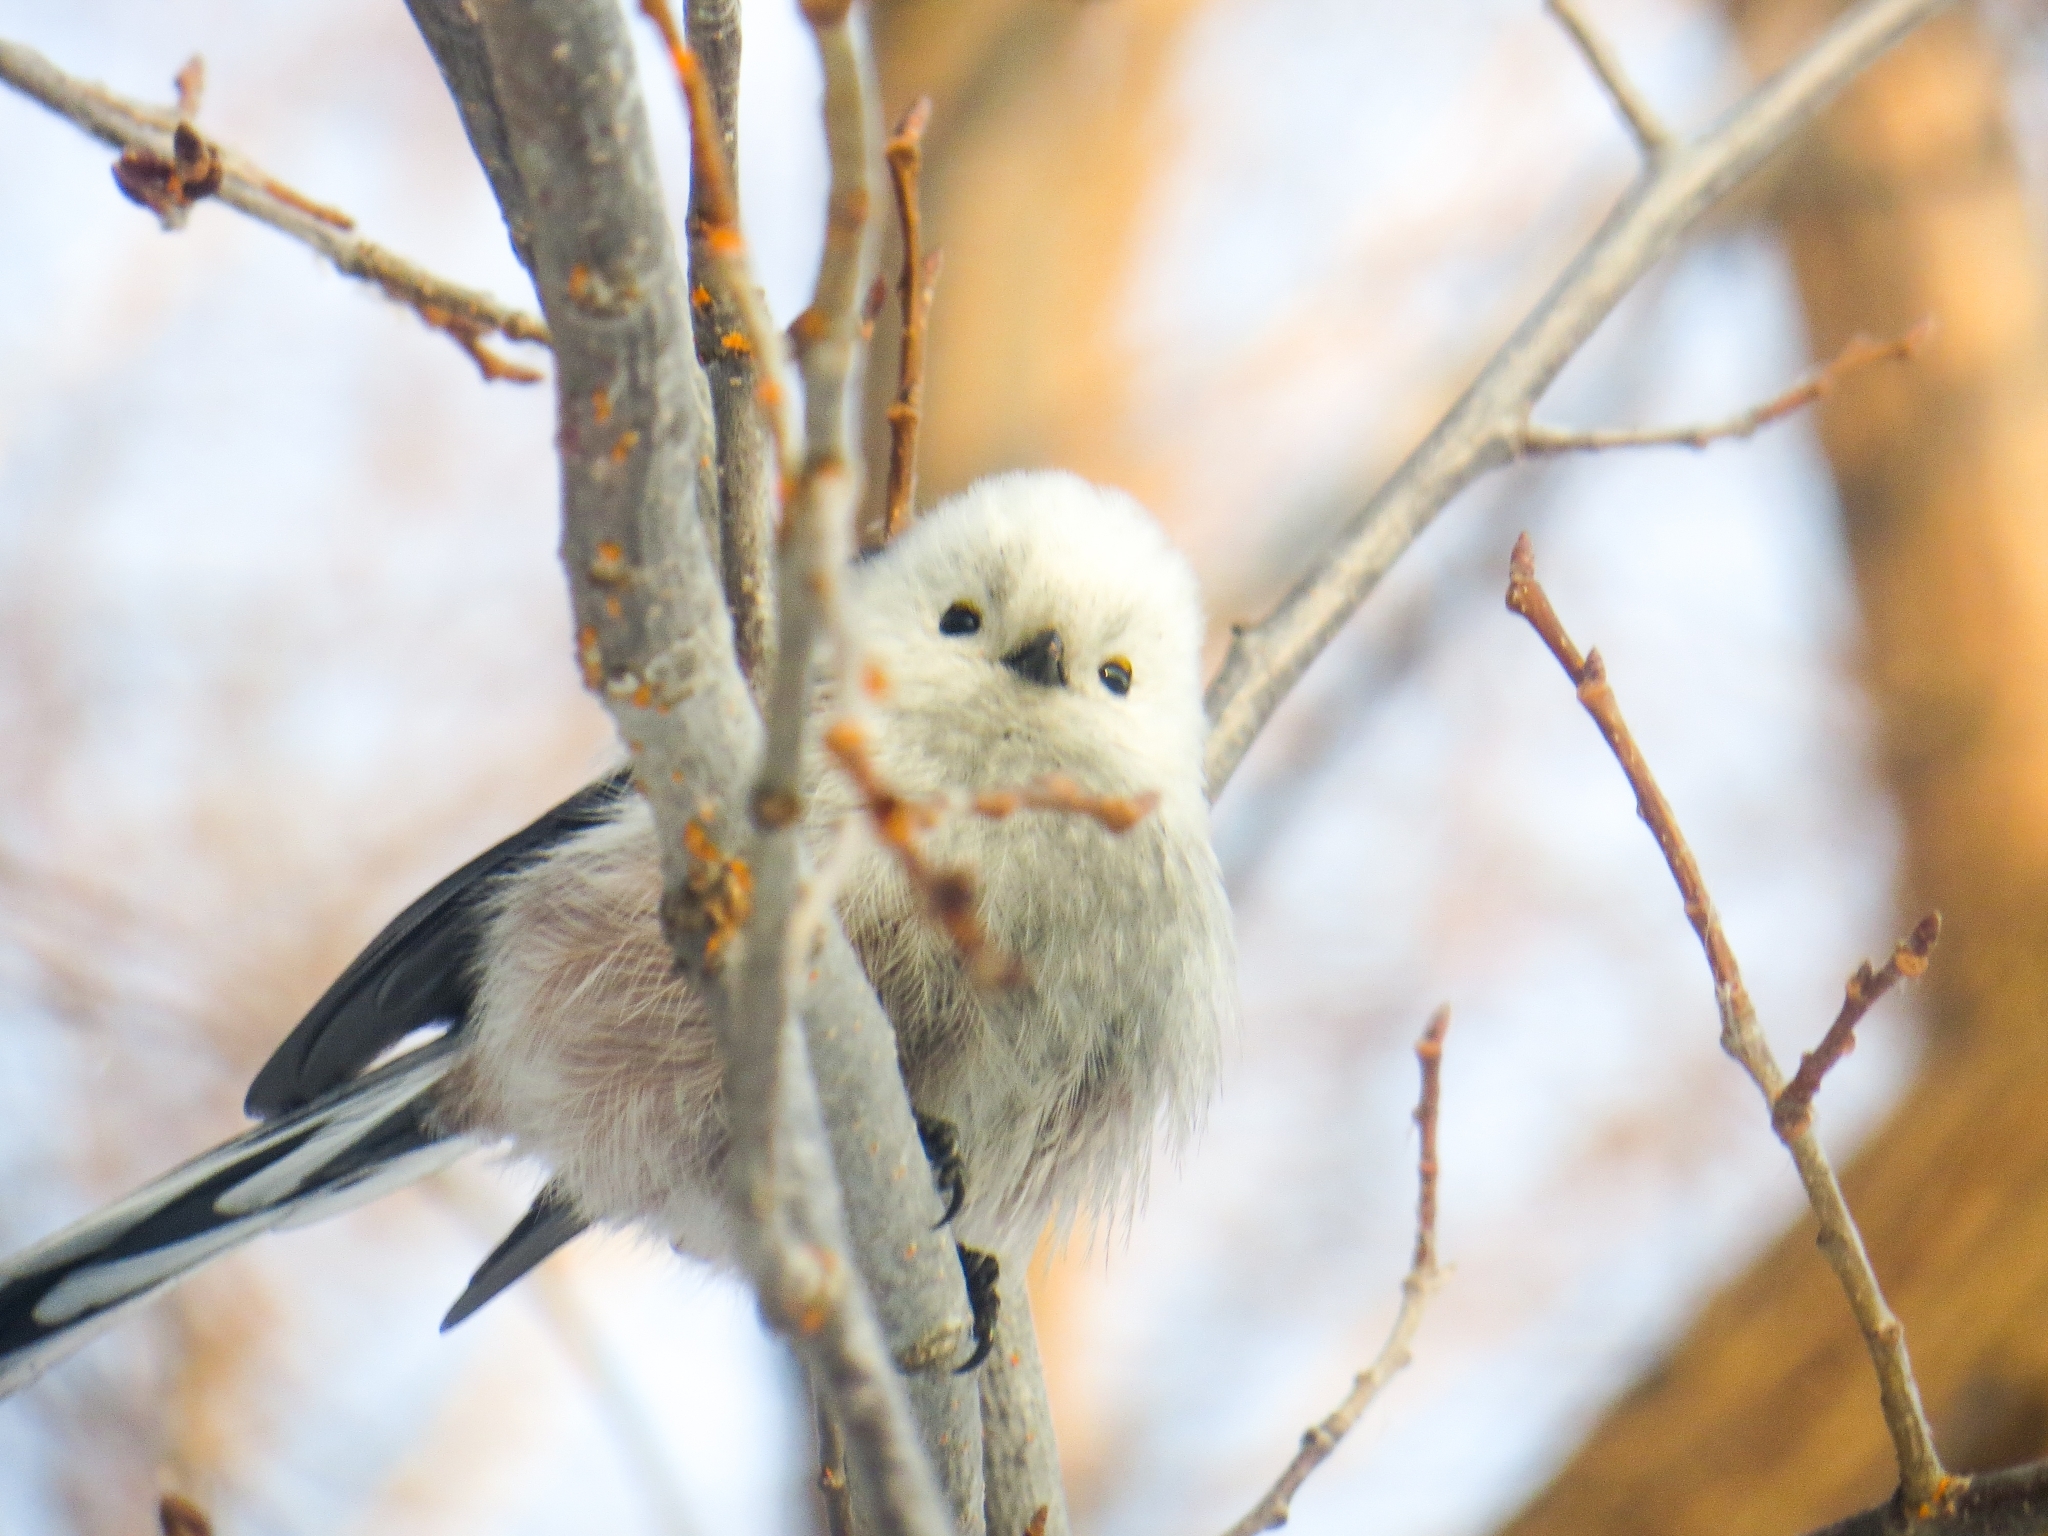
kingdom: Animalia
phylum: Chordata
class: Aves
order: Passeriformes
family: Aegithalidae
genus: Aegithalos
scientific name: Aegithalos caudatus
